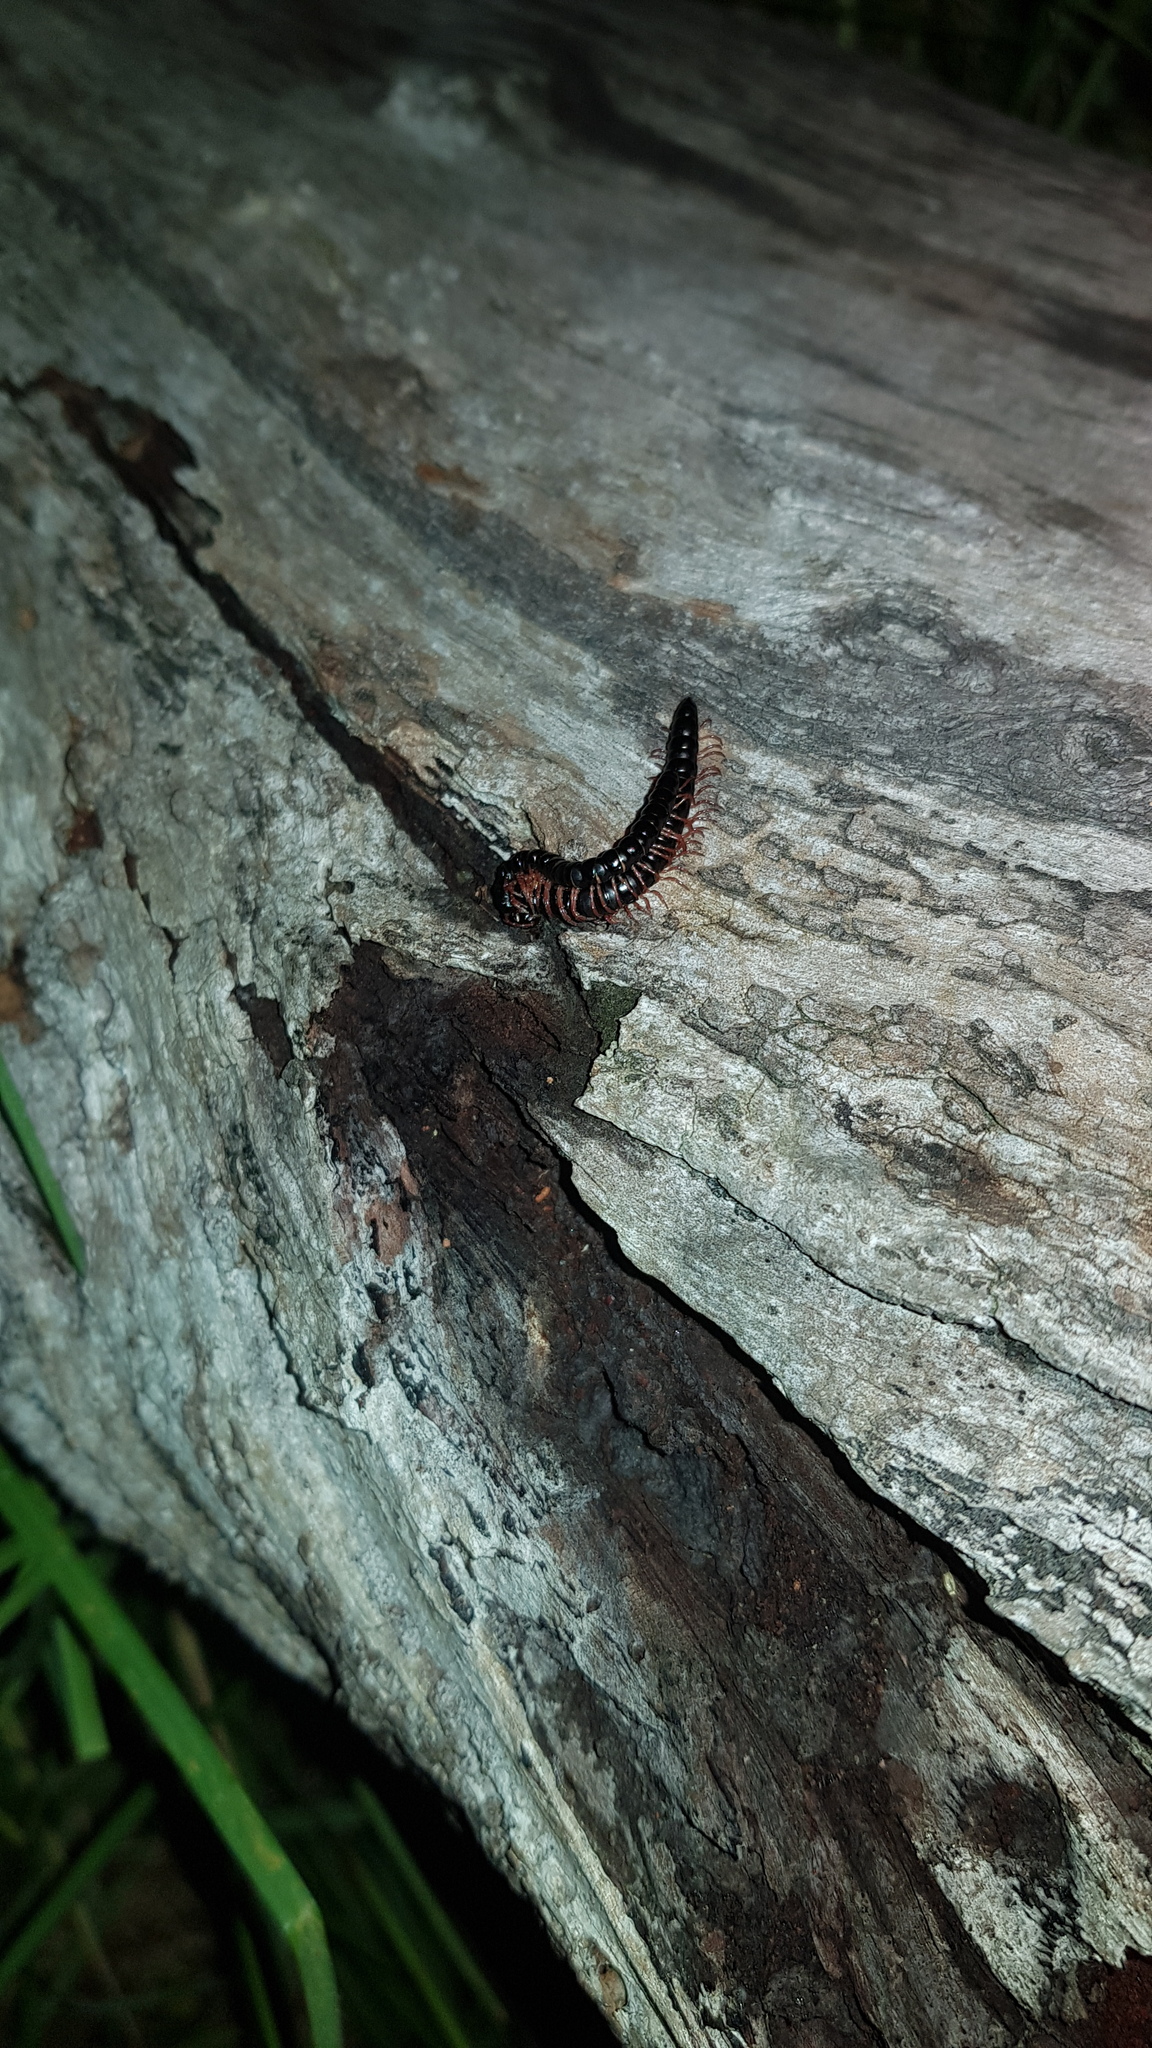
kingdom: Animalia
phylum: Arthropoda
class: Diplopoda
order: Polydesmida
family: Paradoxosomatidae
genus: Heterocladosoma
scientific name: Heterocladosoma
